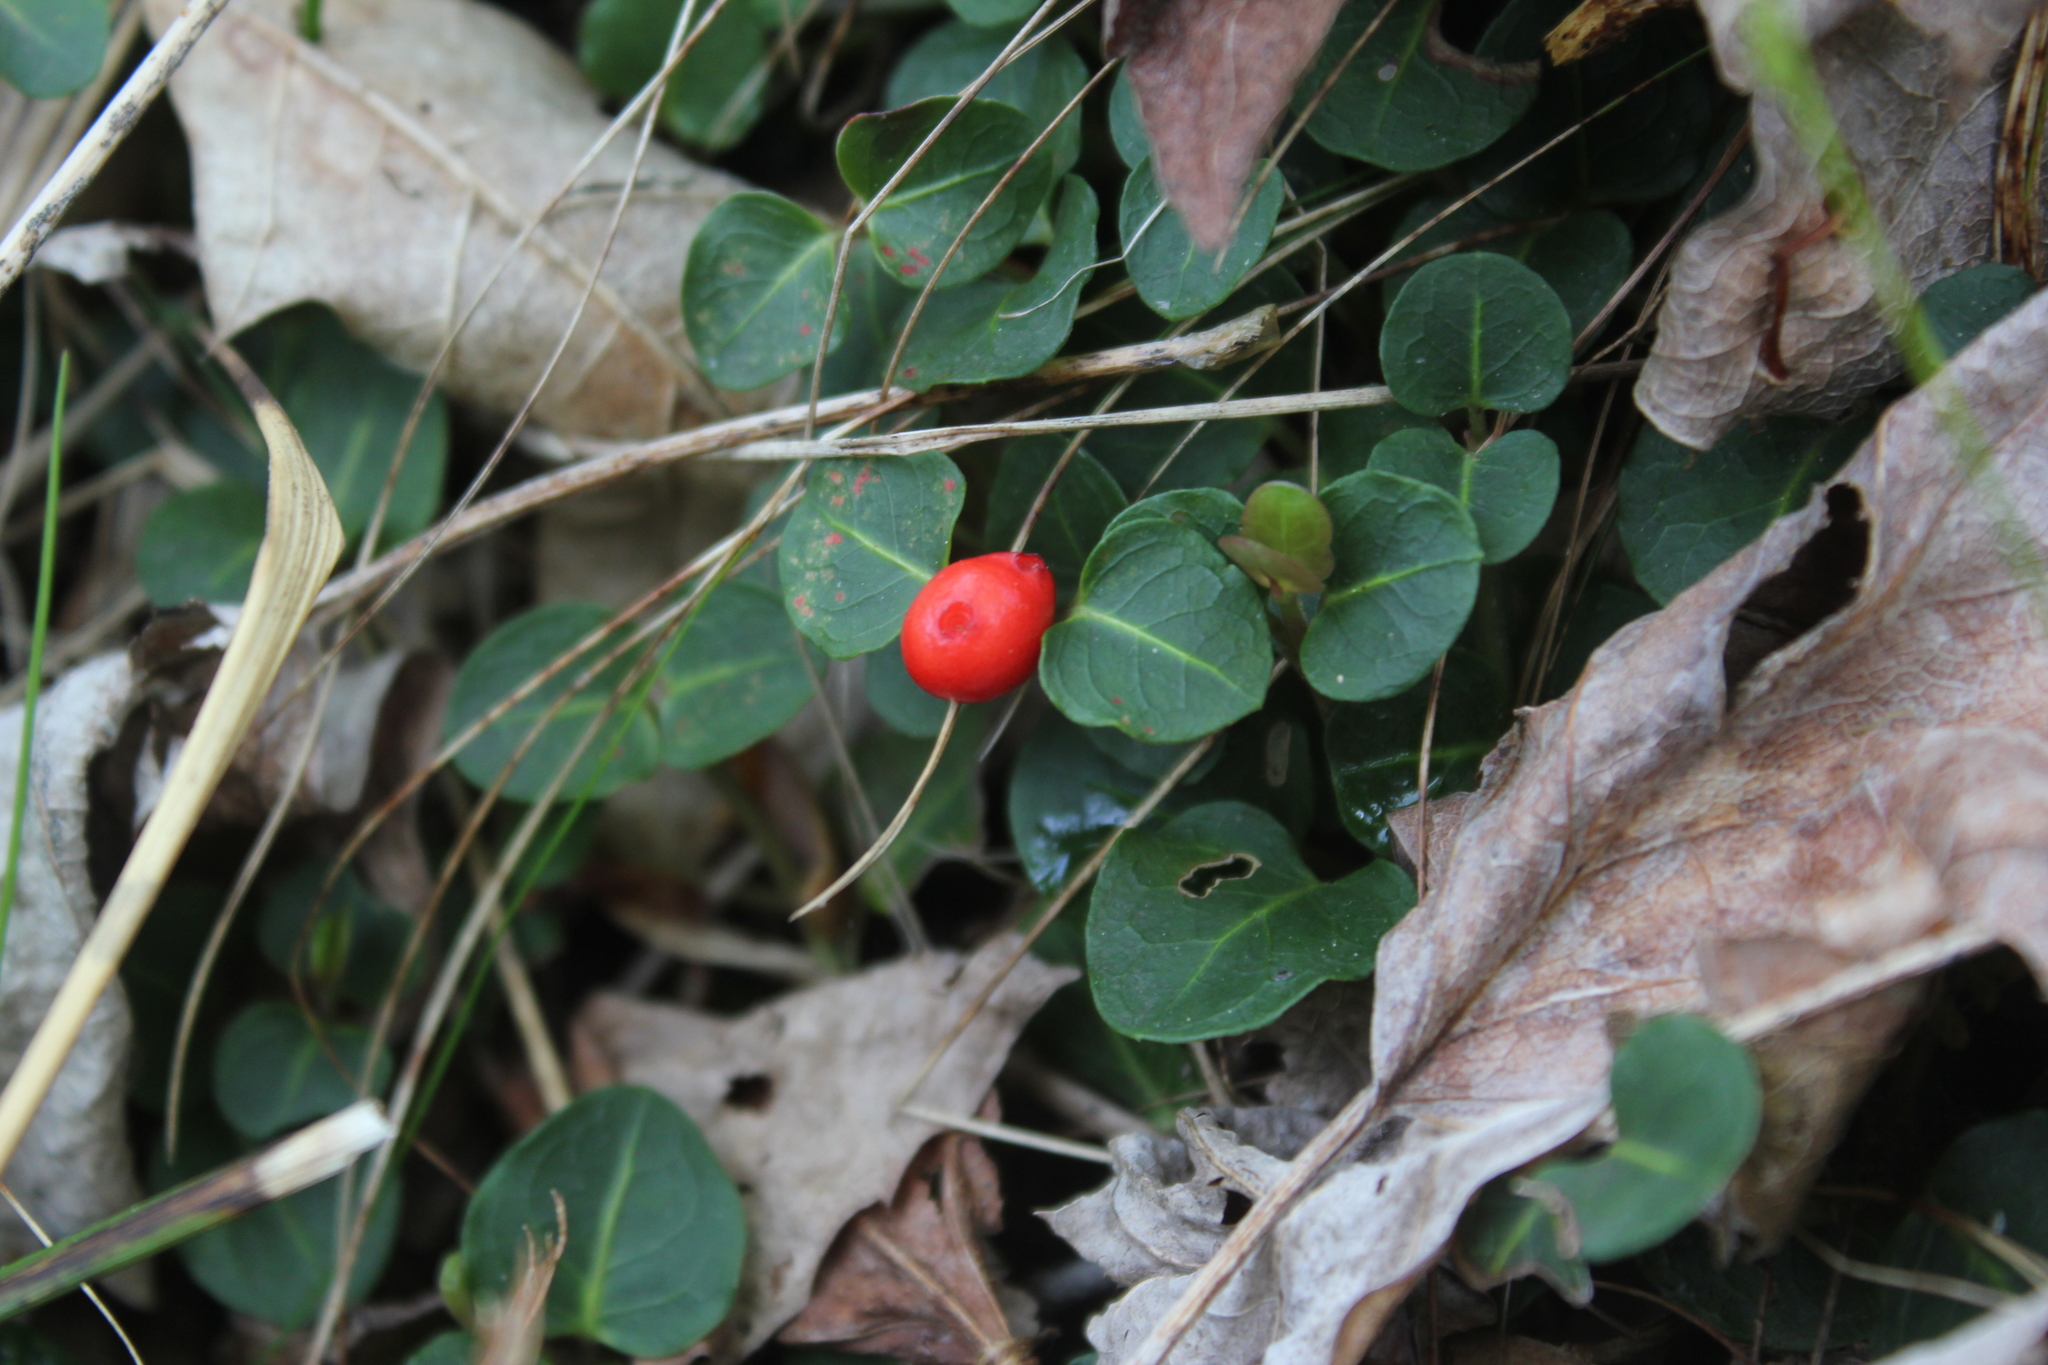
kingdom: Plantae
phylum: Tracheophyta
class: Magnoliopsida
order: Gentianales
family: Rubiaceae
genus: Mitchella
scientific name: Mitchella repens
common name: Partridge-berry
